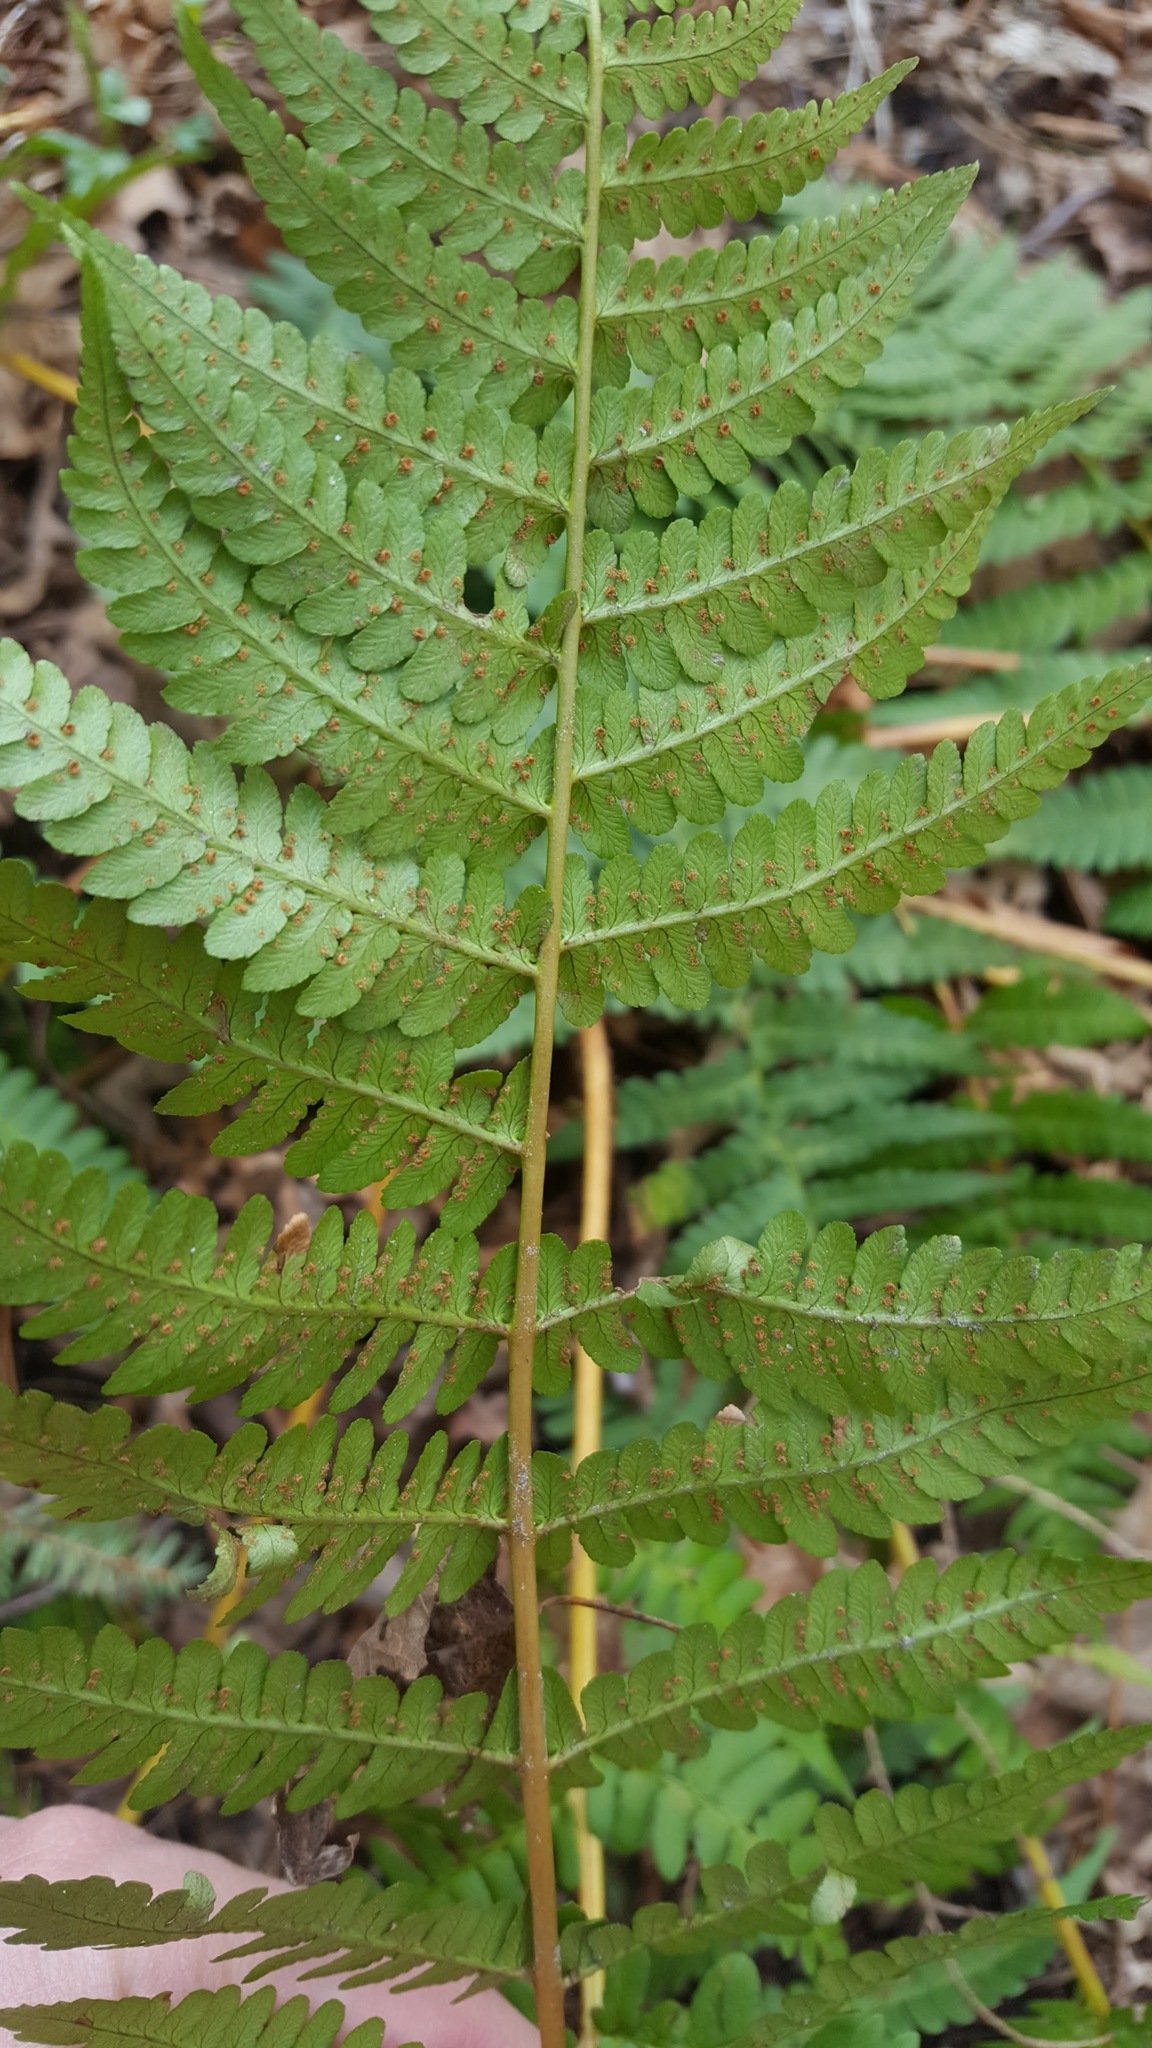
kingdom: Plantae
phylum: Tracheophyta
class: Polypodiopsida
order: Polypodiales
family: Dryopteridaceae
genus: Dryopteris
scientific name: Dryopteris marginalis
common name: Marginal wood fern
